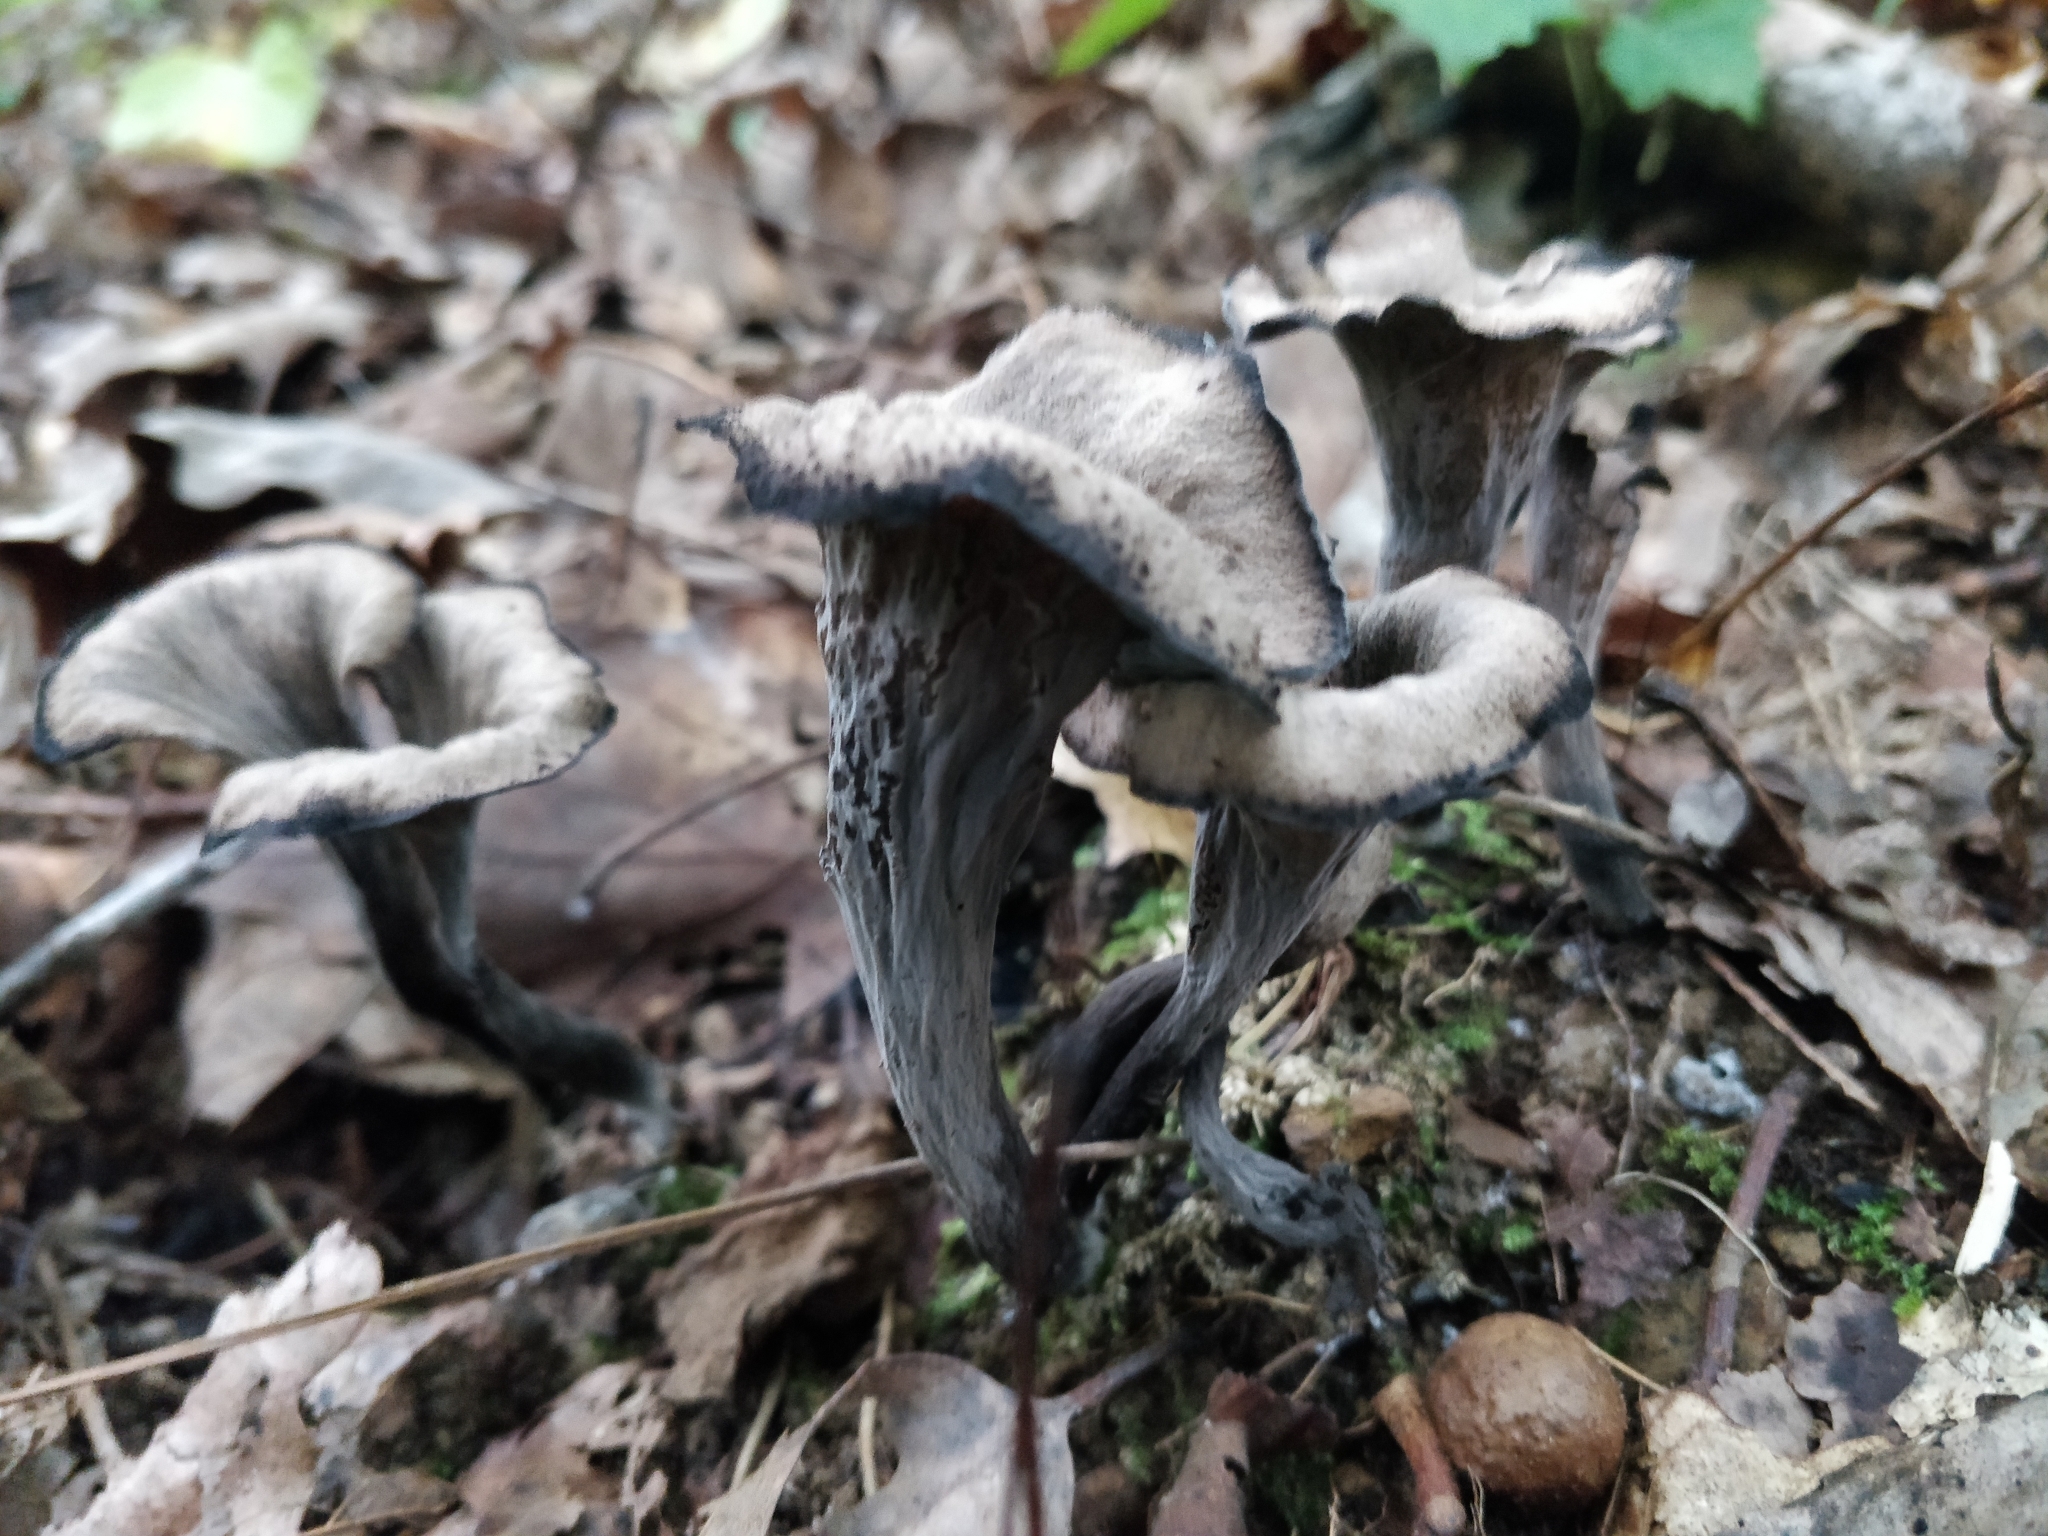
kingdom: Fungi
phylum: Basidiomycota
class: Agaricomycetes
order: Cantharellales
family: Hydnaceae
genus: Craterellus
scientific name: Craterellus cornucopioides
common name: Horn of plenty
